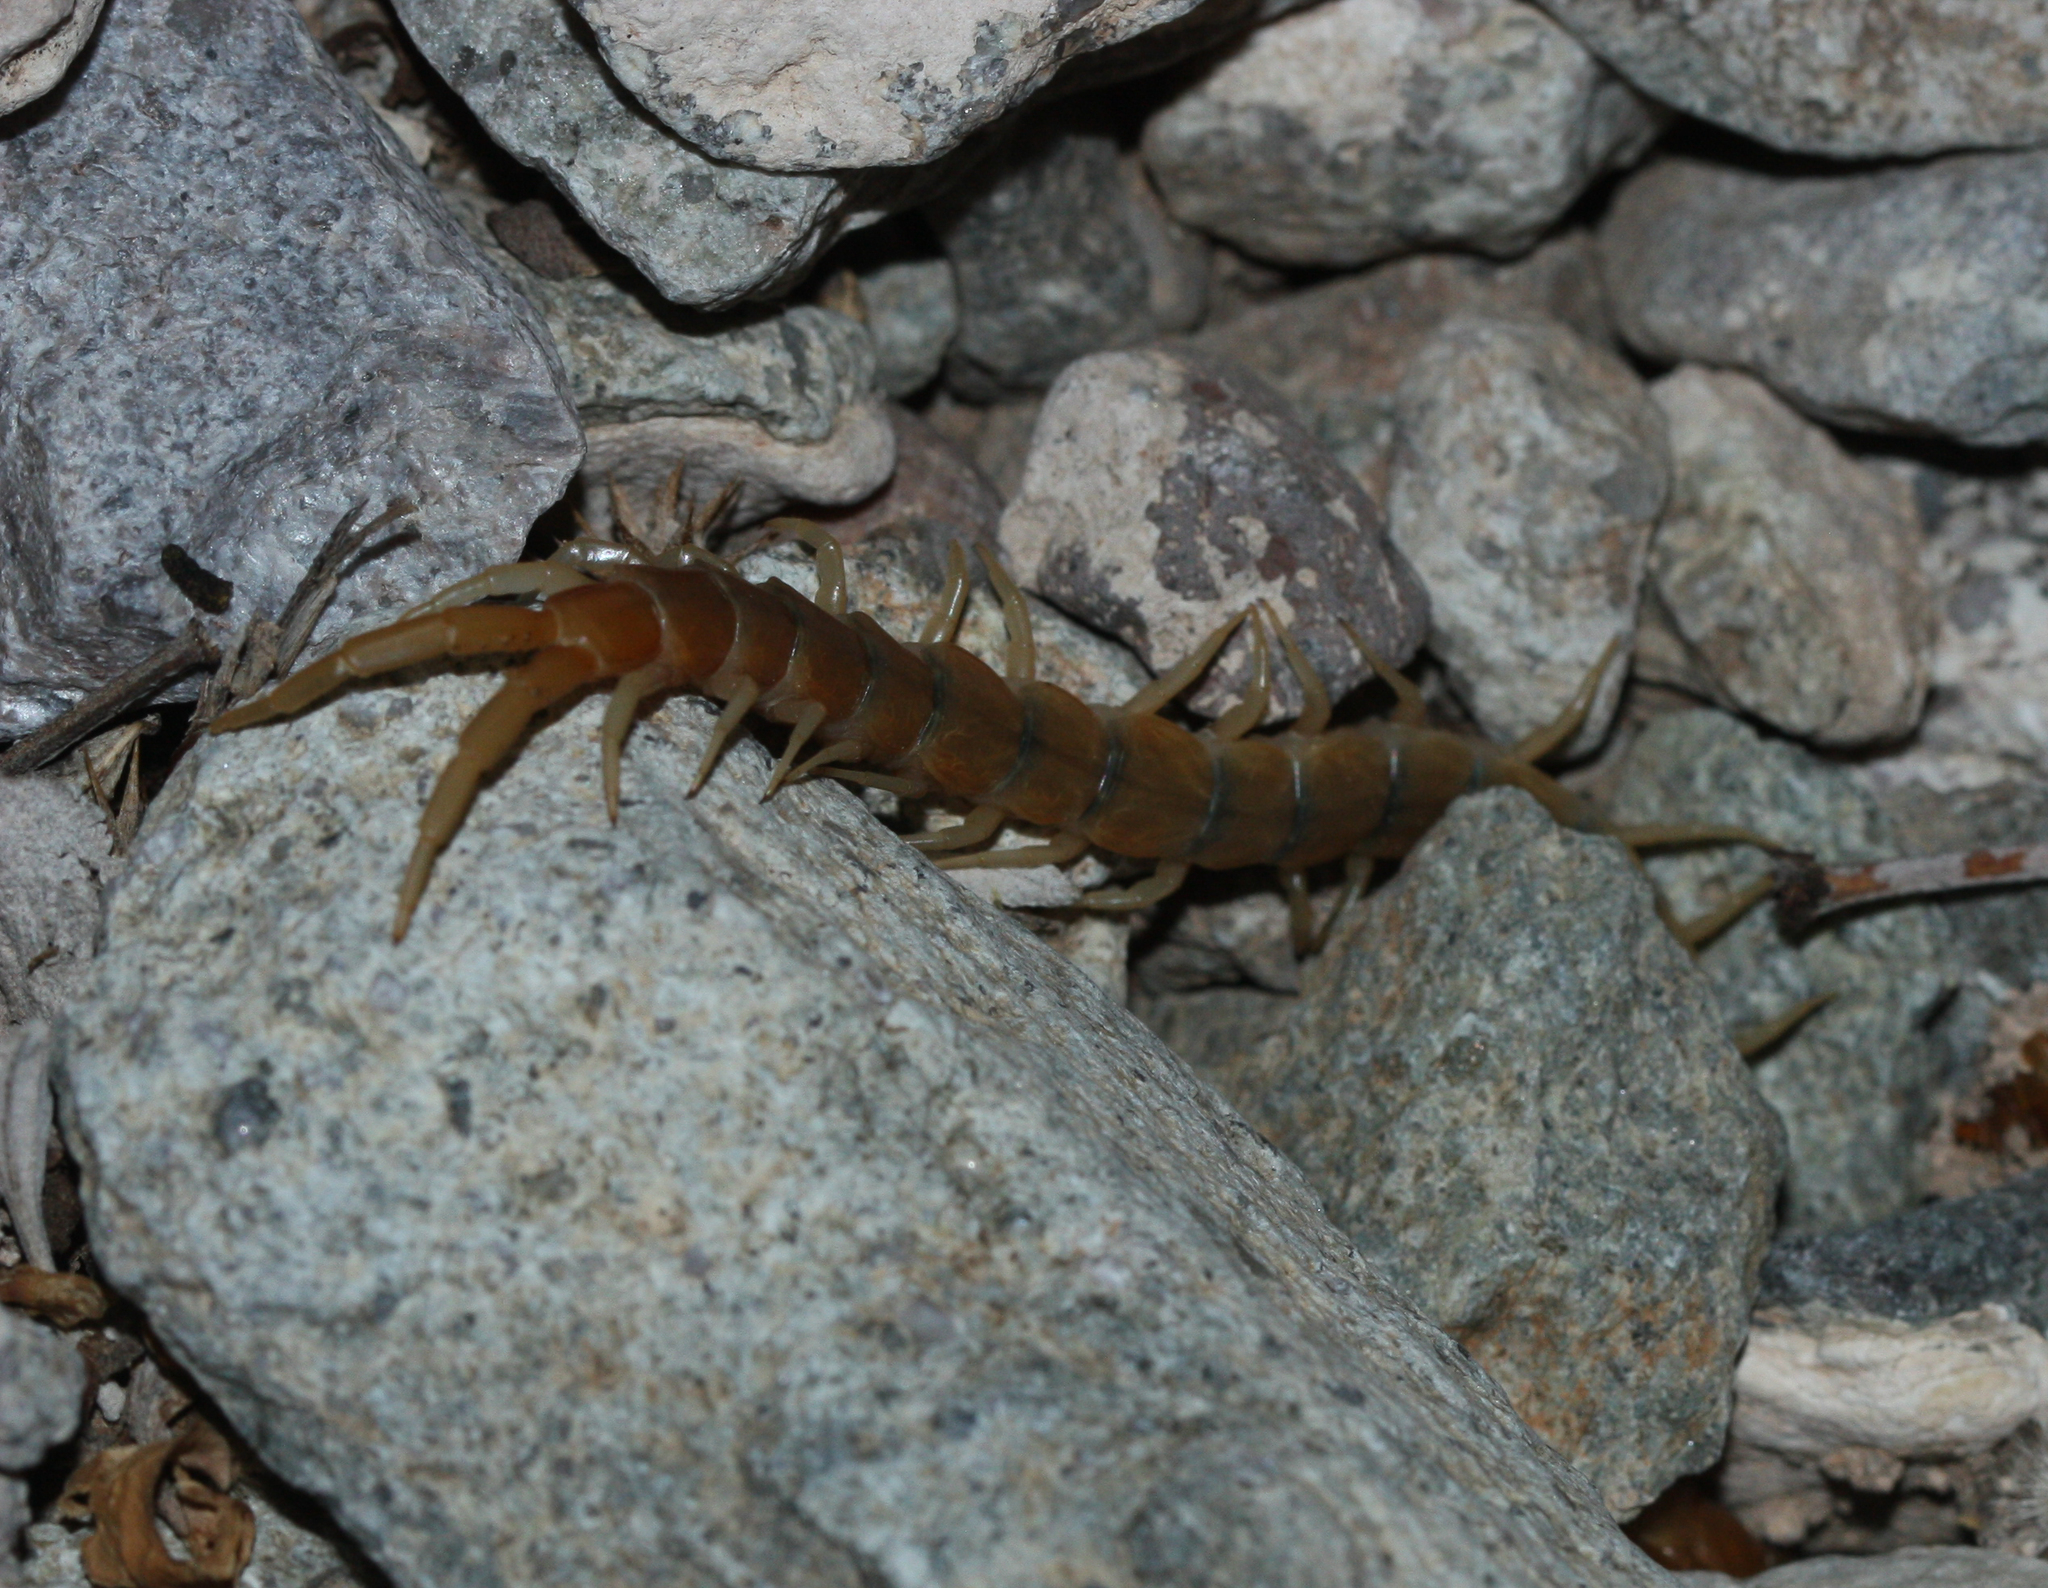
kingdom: Animalia
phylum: Arthropoda
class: Chilopoda
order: Scolopendromorpha
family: Scolopendridae
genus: Scolopendra
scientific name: Scolopendra polymorpha
